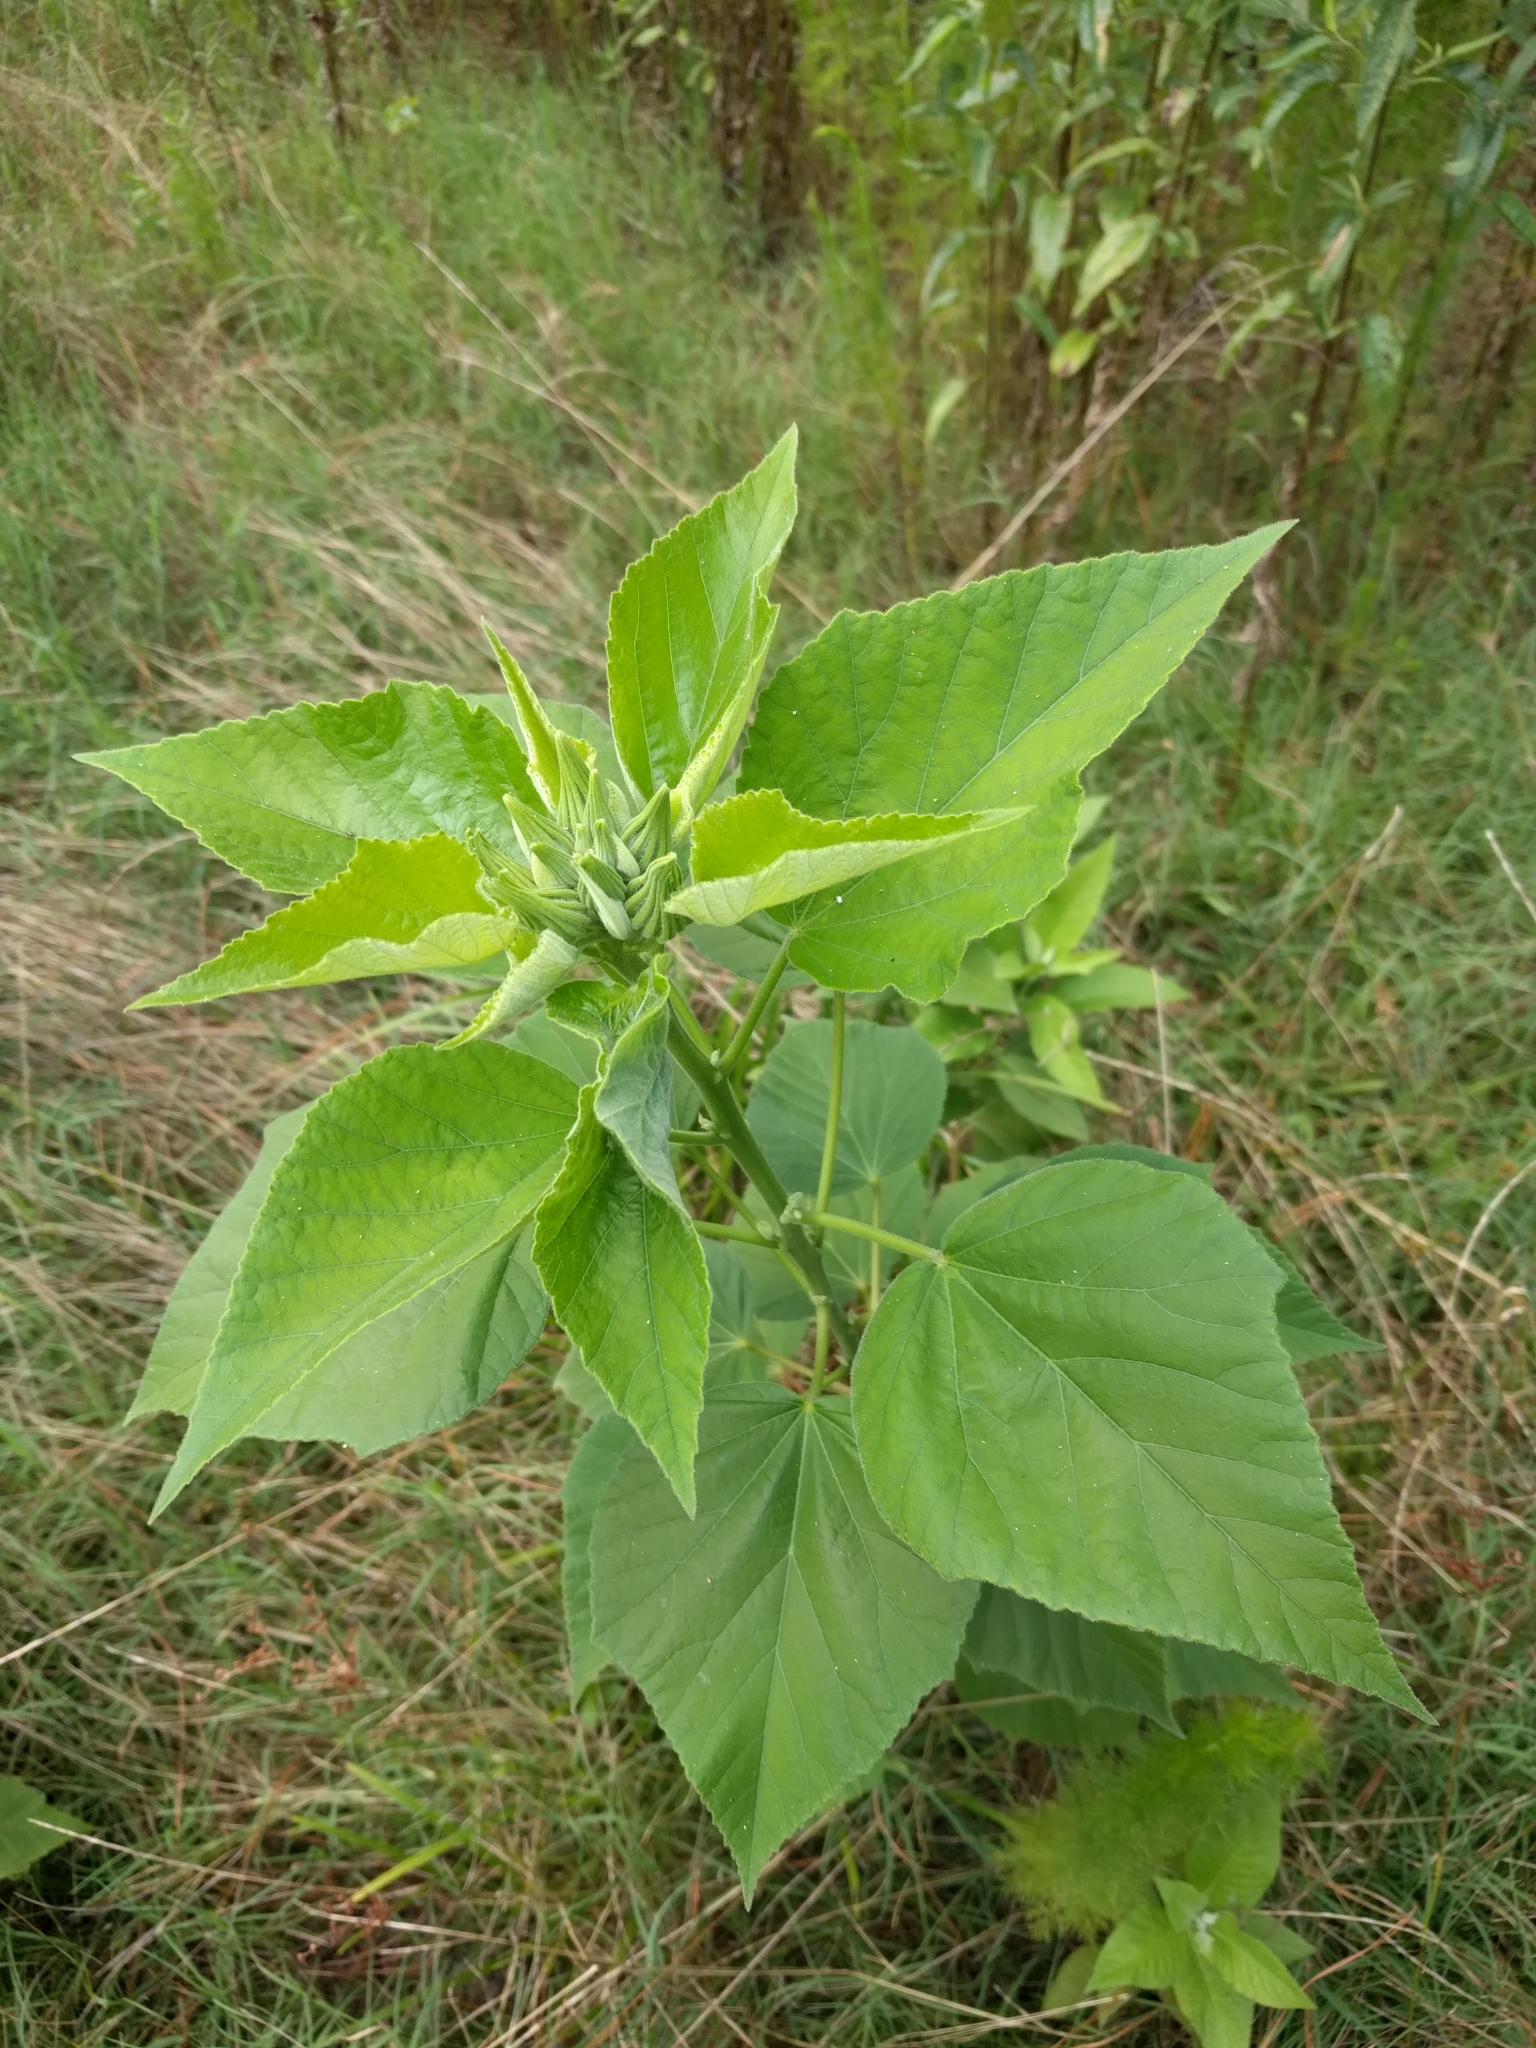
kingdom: Plantae
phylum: Tracheophyta
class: Magnoliopsida
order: Malvales
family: Malvaceae
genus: Hibiscus
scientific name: Hibiscus moscheutos
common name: Common rose-mallow
